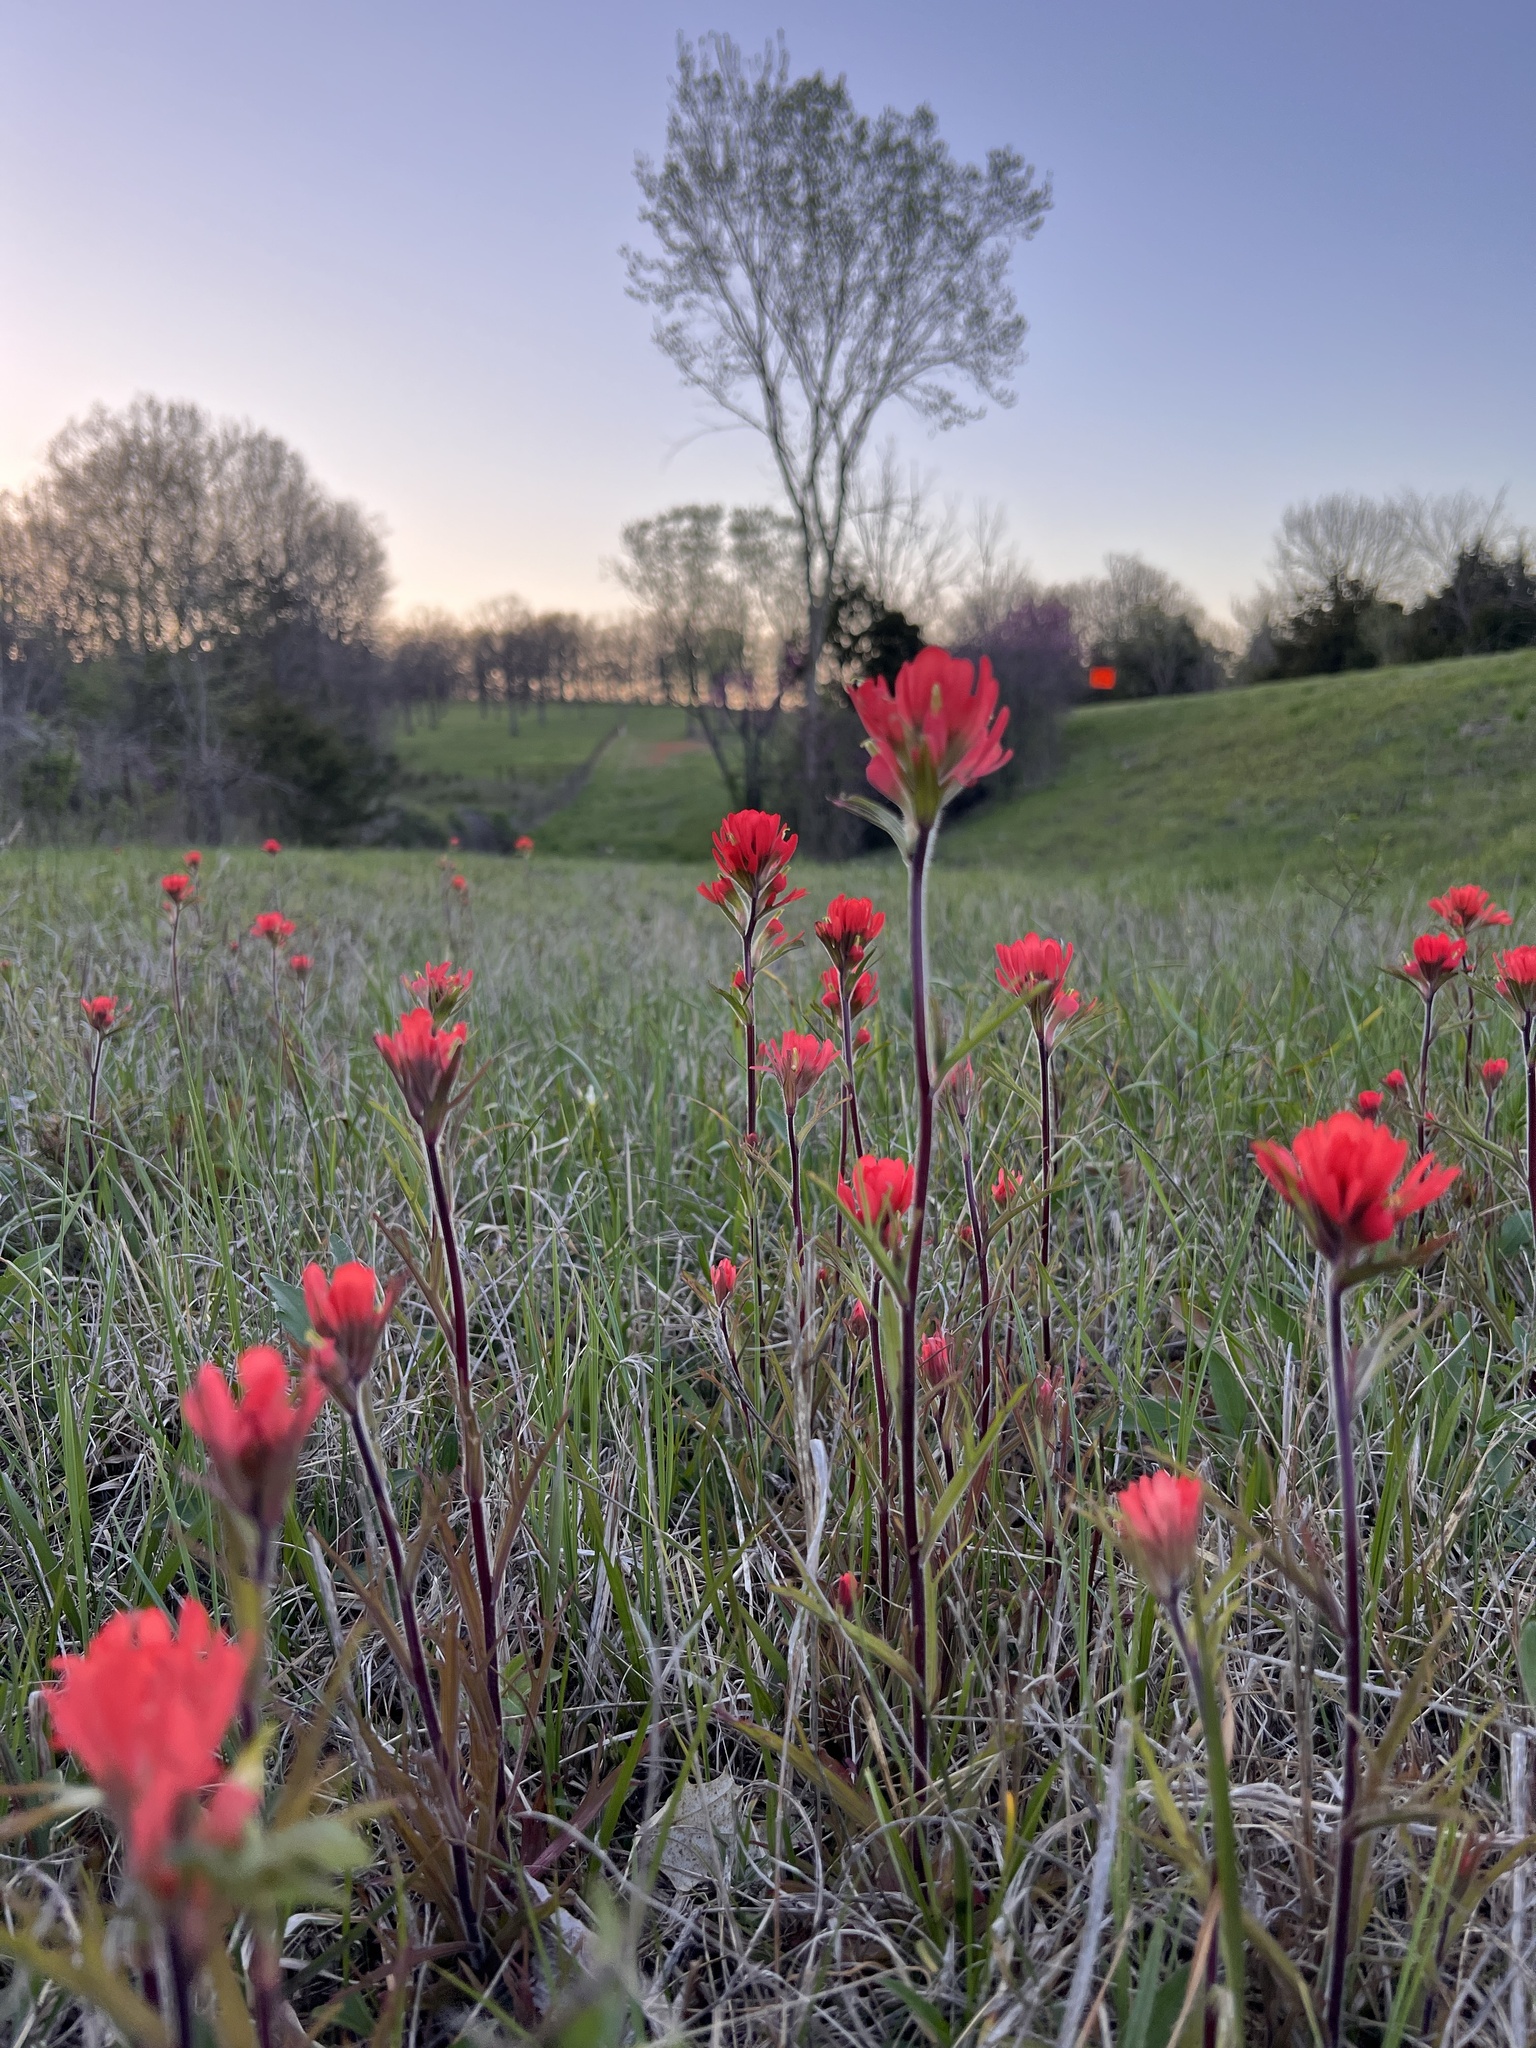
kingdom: Plantae
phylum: Tracheophyta
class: Magnoliopsida
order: Lamiales
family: Orobanchaceae
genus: Castilleja
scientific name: Castilleja coccinea
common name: Scarlet paintbrush
